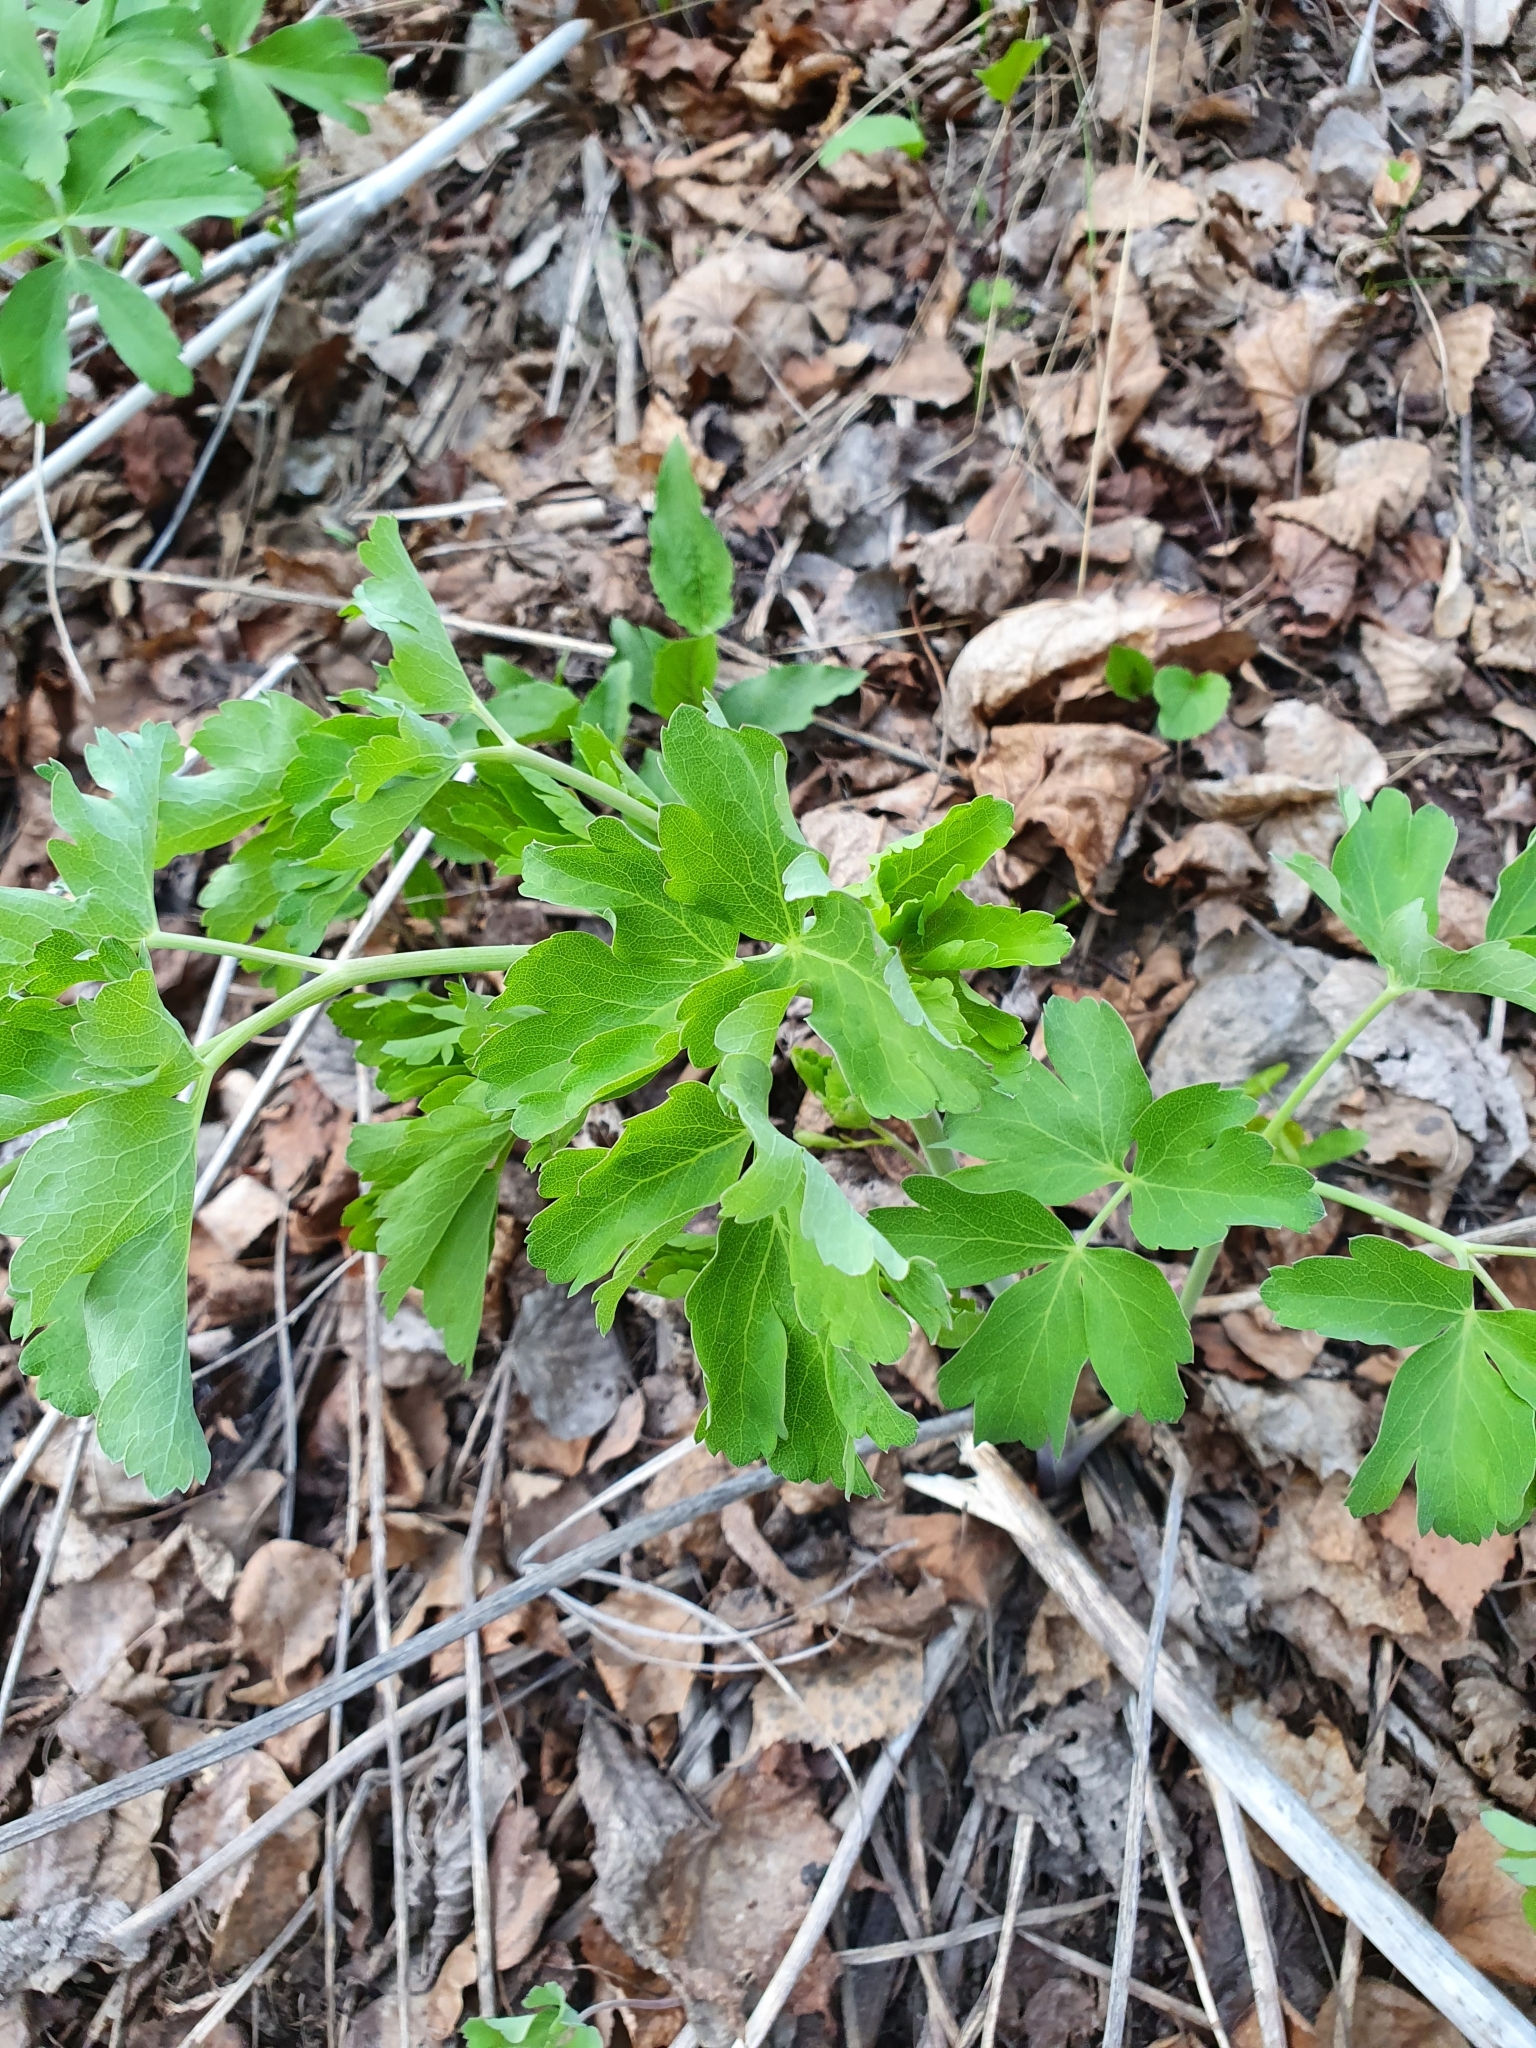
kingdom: Plantae
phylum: Tracheophyta
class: Magnoliopsida
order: Apiales
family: Apiaceae
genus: Laser
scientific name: Laser trilobum
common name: Laser
